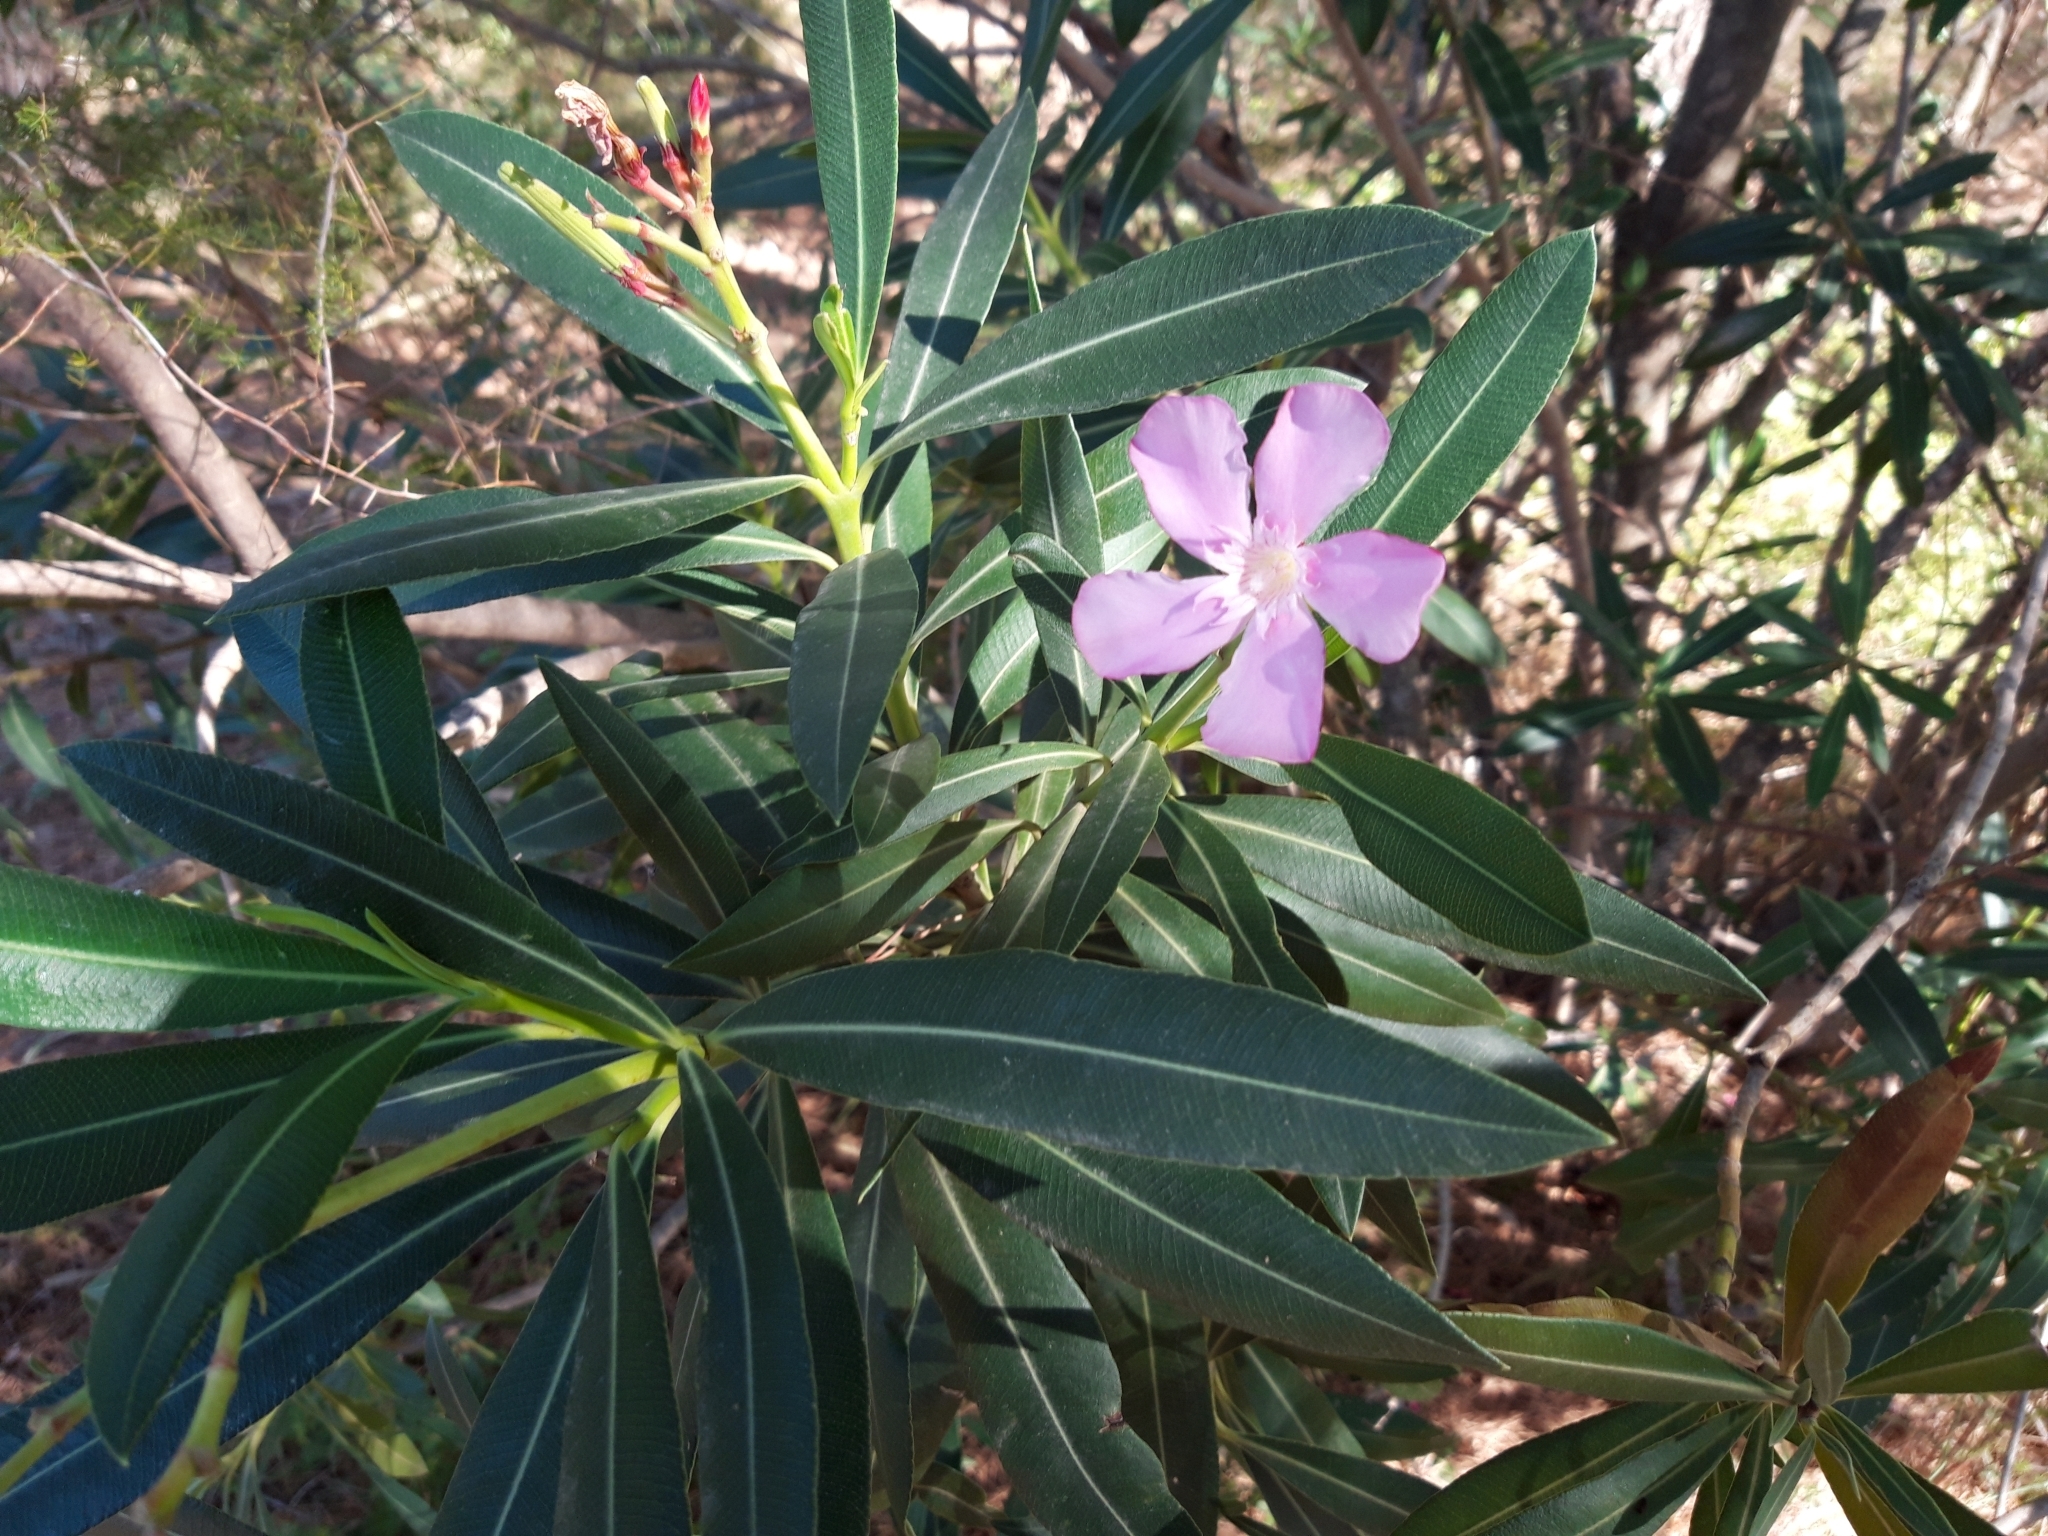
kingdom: Plantae
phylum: Tracheophyta
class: Magnoliopsida
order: Gentianales
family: Apocynaceae
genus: Nerium
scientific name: Nerium oleander
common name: Oleander
